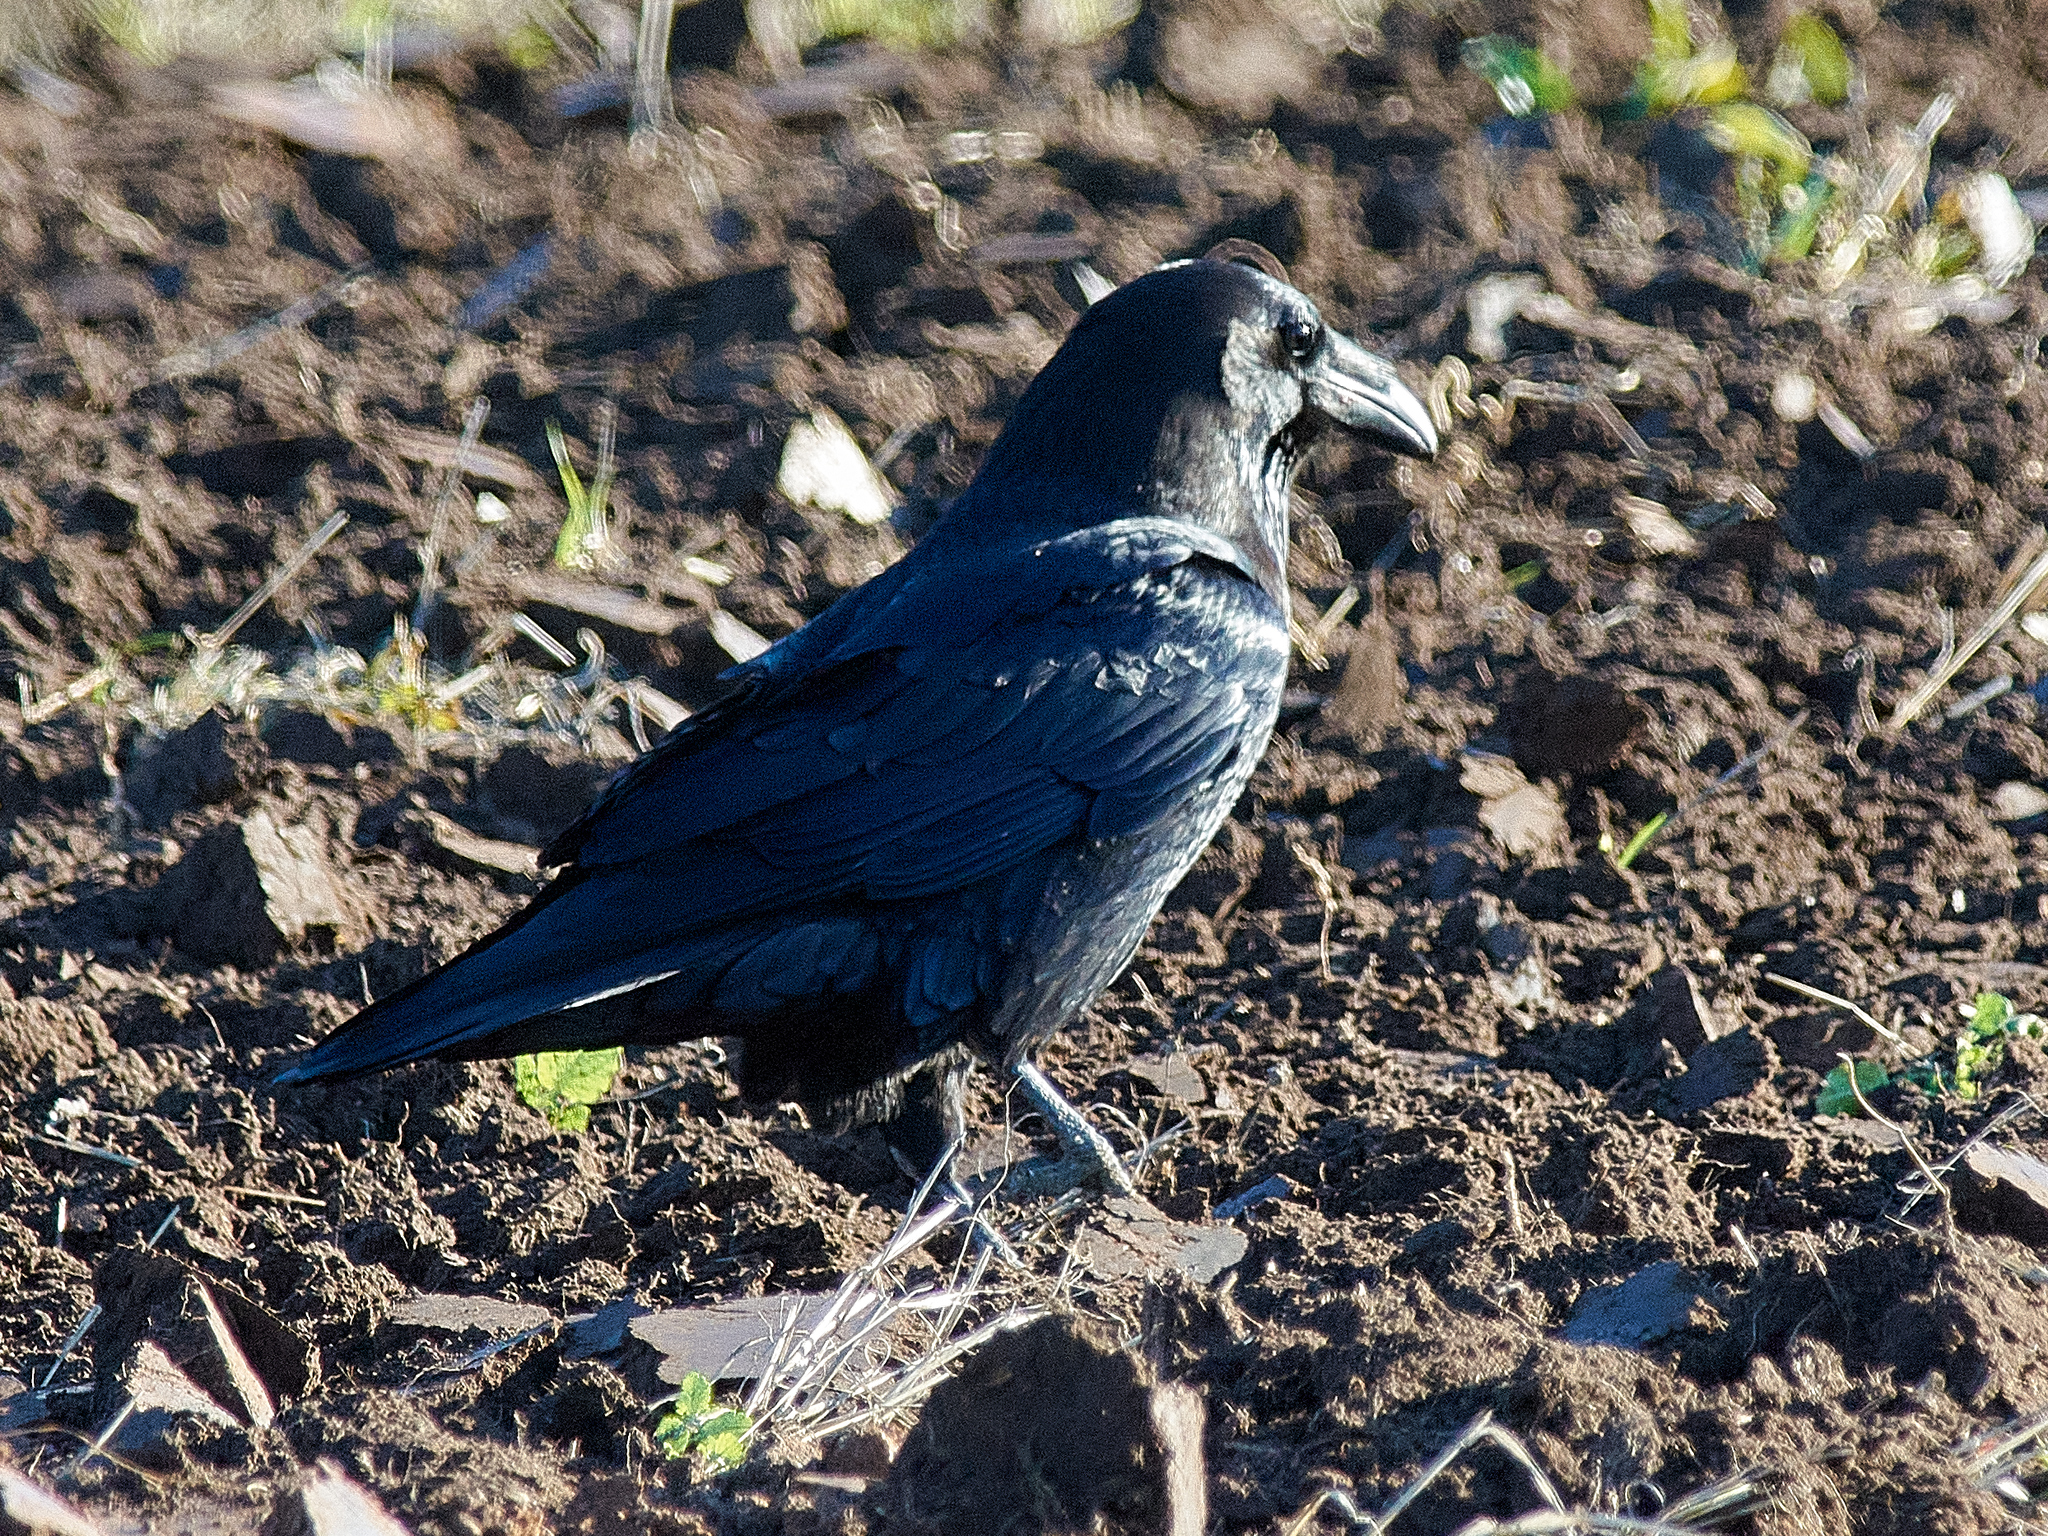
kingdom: Animalia
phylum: Chordata
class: Aves
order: Passeriformes
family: Corvidae
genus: Corvus
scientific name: Corvus corax
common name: Common raven
